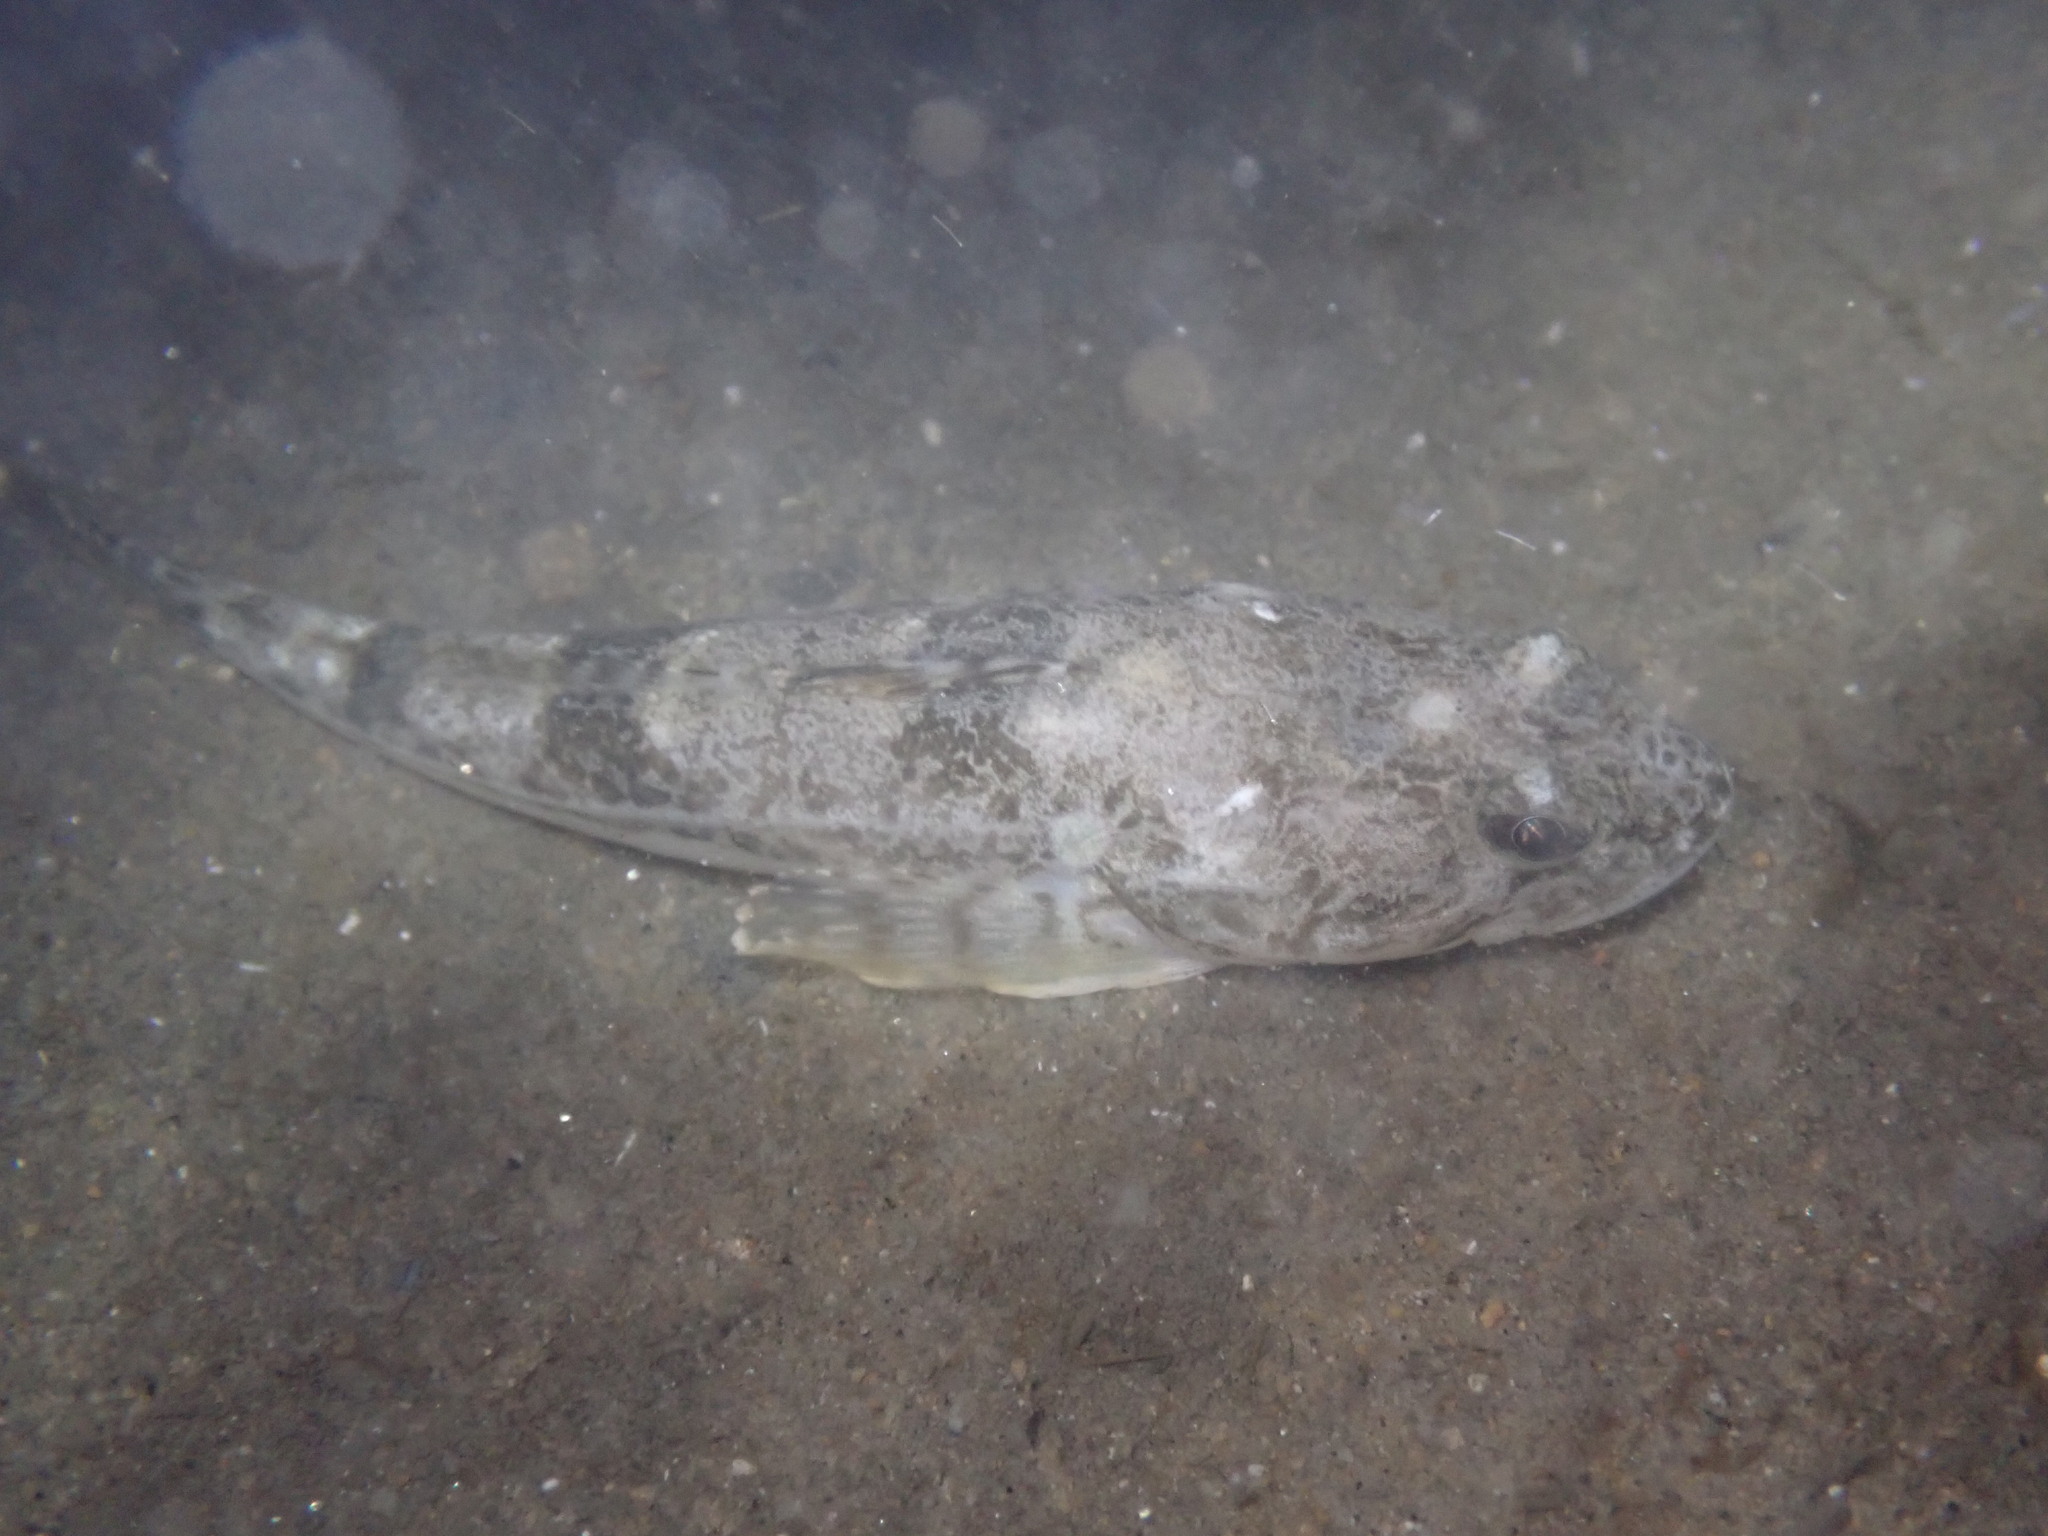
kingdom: Animalia
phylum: Chordata
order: Scorpaeniformes
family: Cottidae
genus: Leptocottus
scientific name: Leptocottus armatus
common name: Pacific staghorn sculpin
